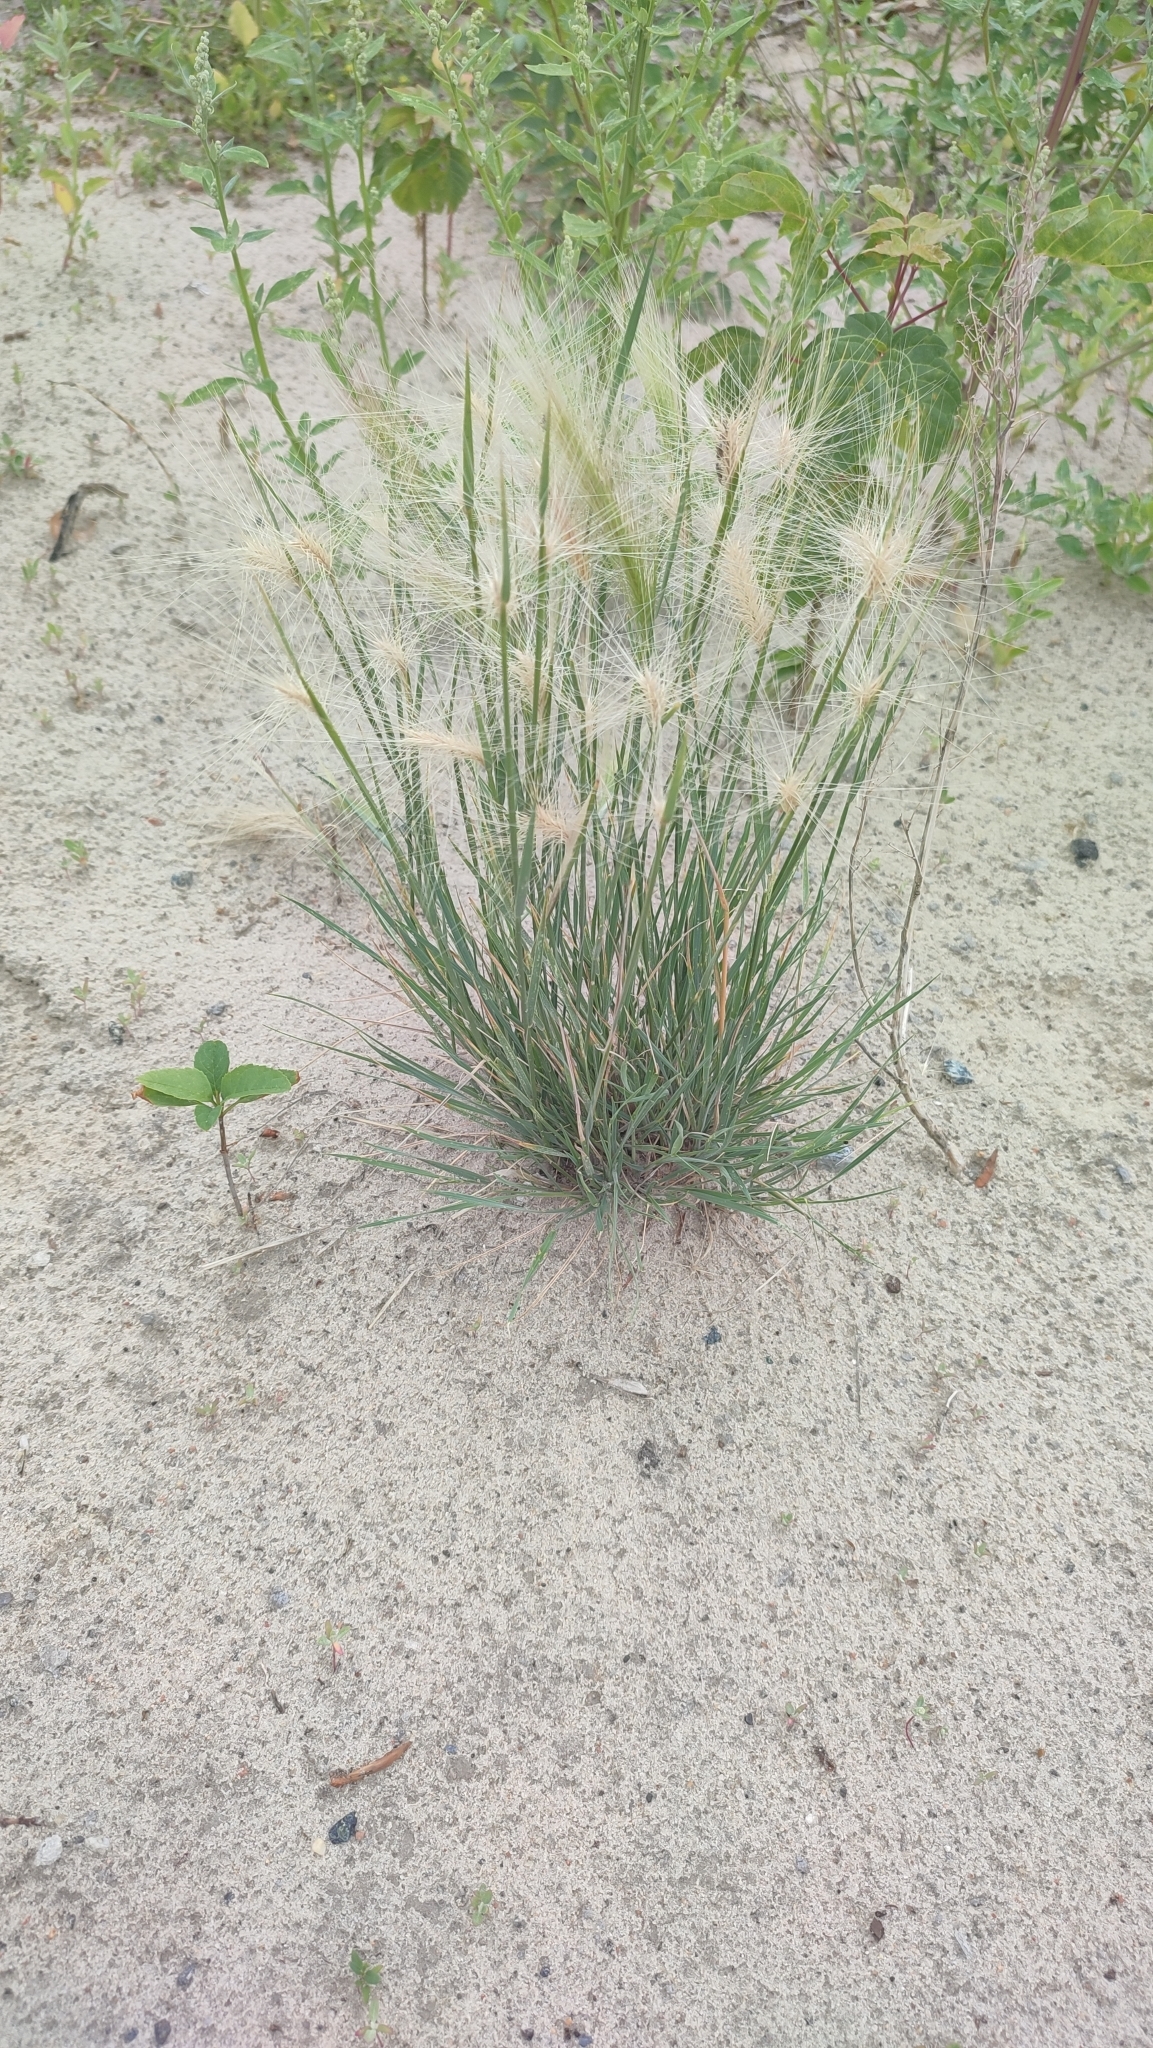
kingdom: Plantae
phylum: Tracheophyta
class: Liliopsida
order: Poales
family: Poaceae
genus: Hordeum
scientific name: Hordeum jubatum
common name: Foxtail barley
